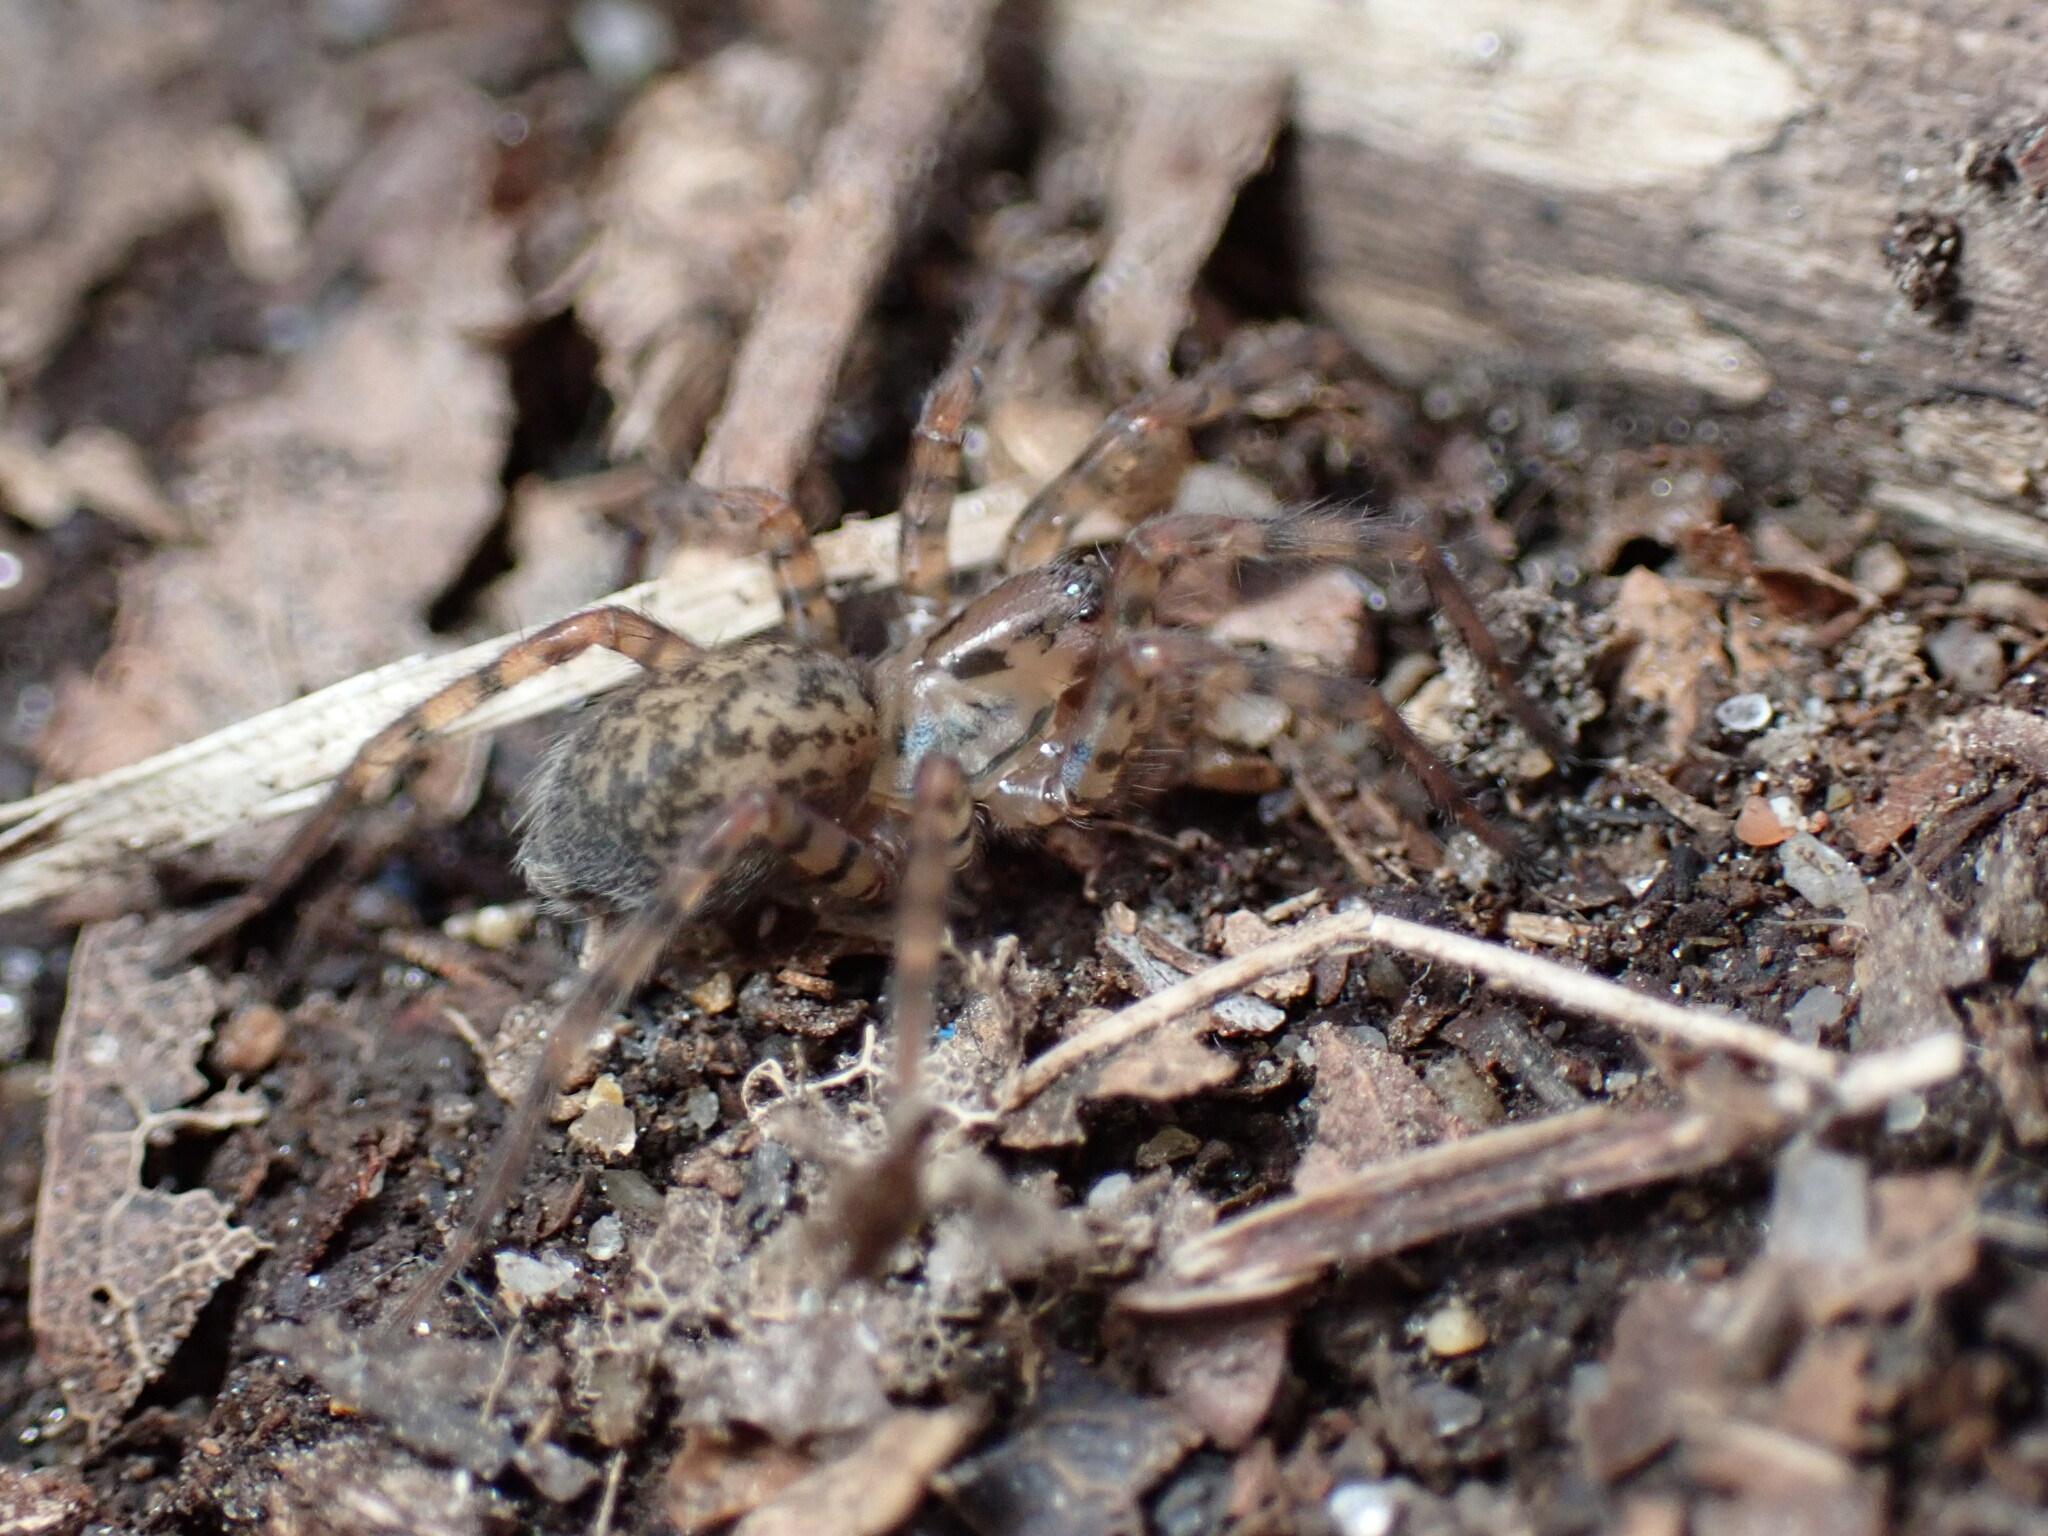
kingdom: Animalia
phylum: Arthropoda
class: Arachnida
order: Araneae
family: Agelenidae
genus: Coras
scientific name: Coras
